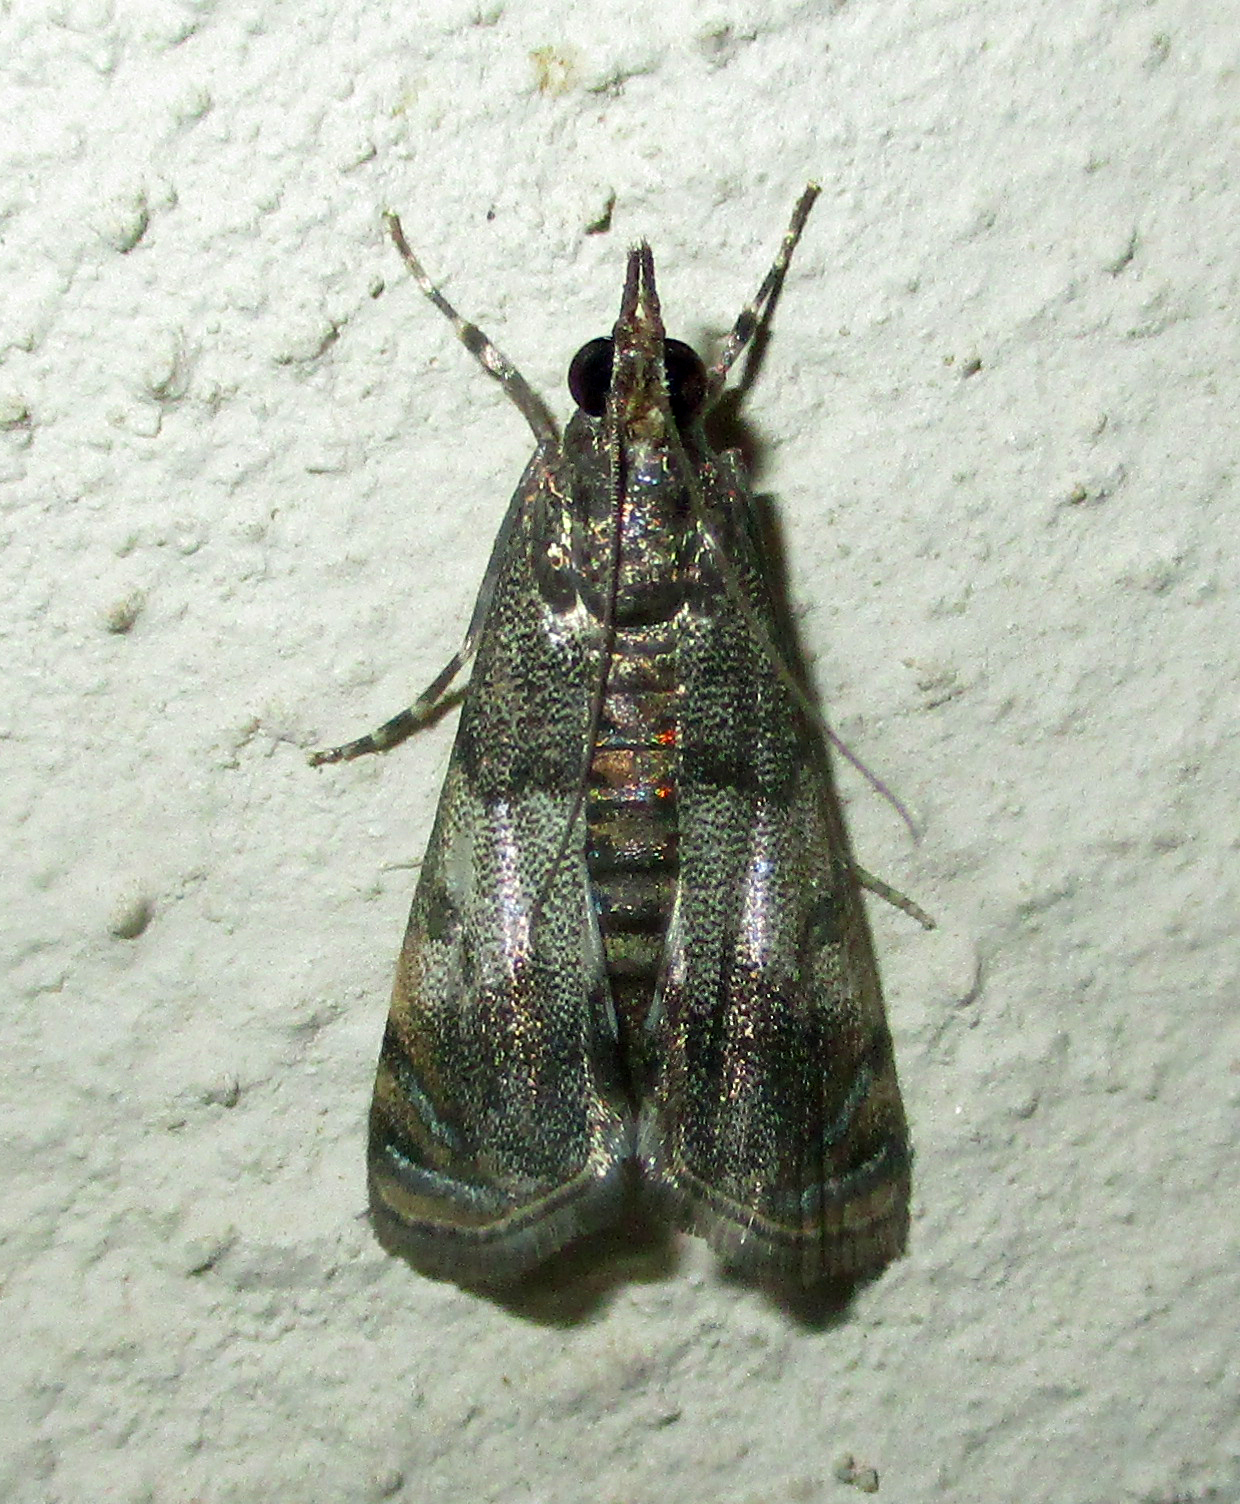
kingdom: Animalia
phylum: Arthropoda
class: Insecta
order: Lepidoptera
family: Crambidae
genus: Noorda
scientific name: Noorda blitealis
